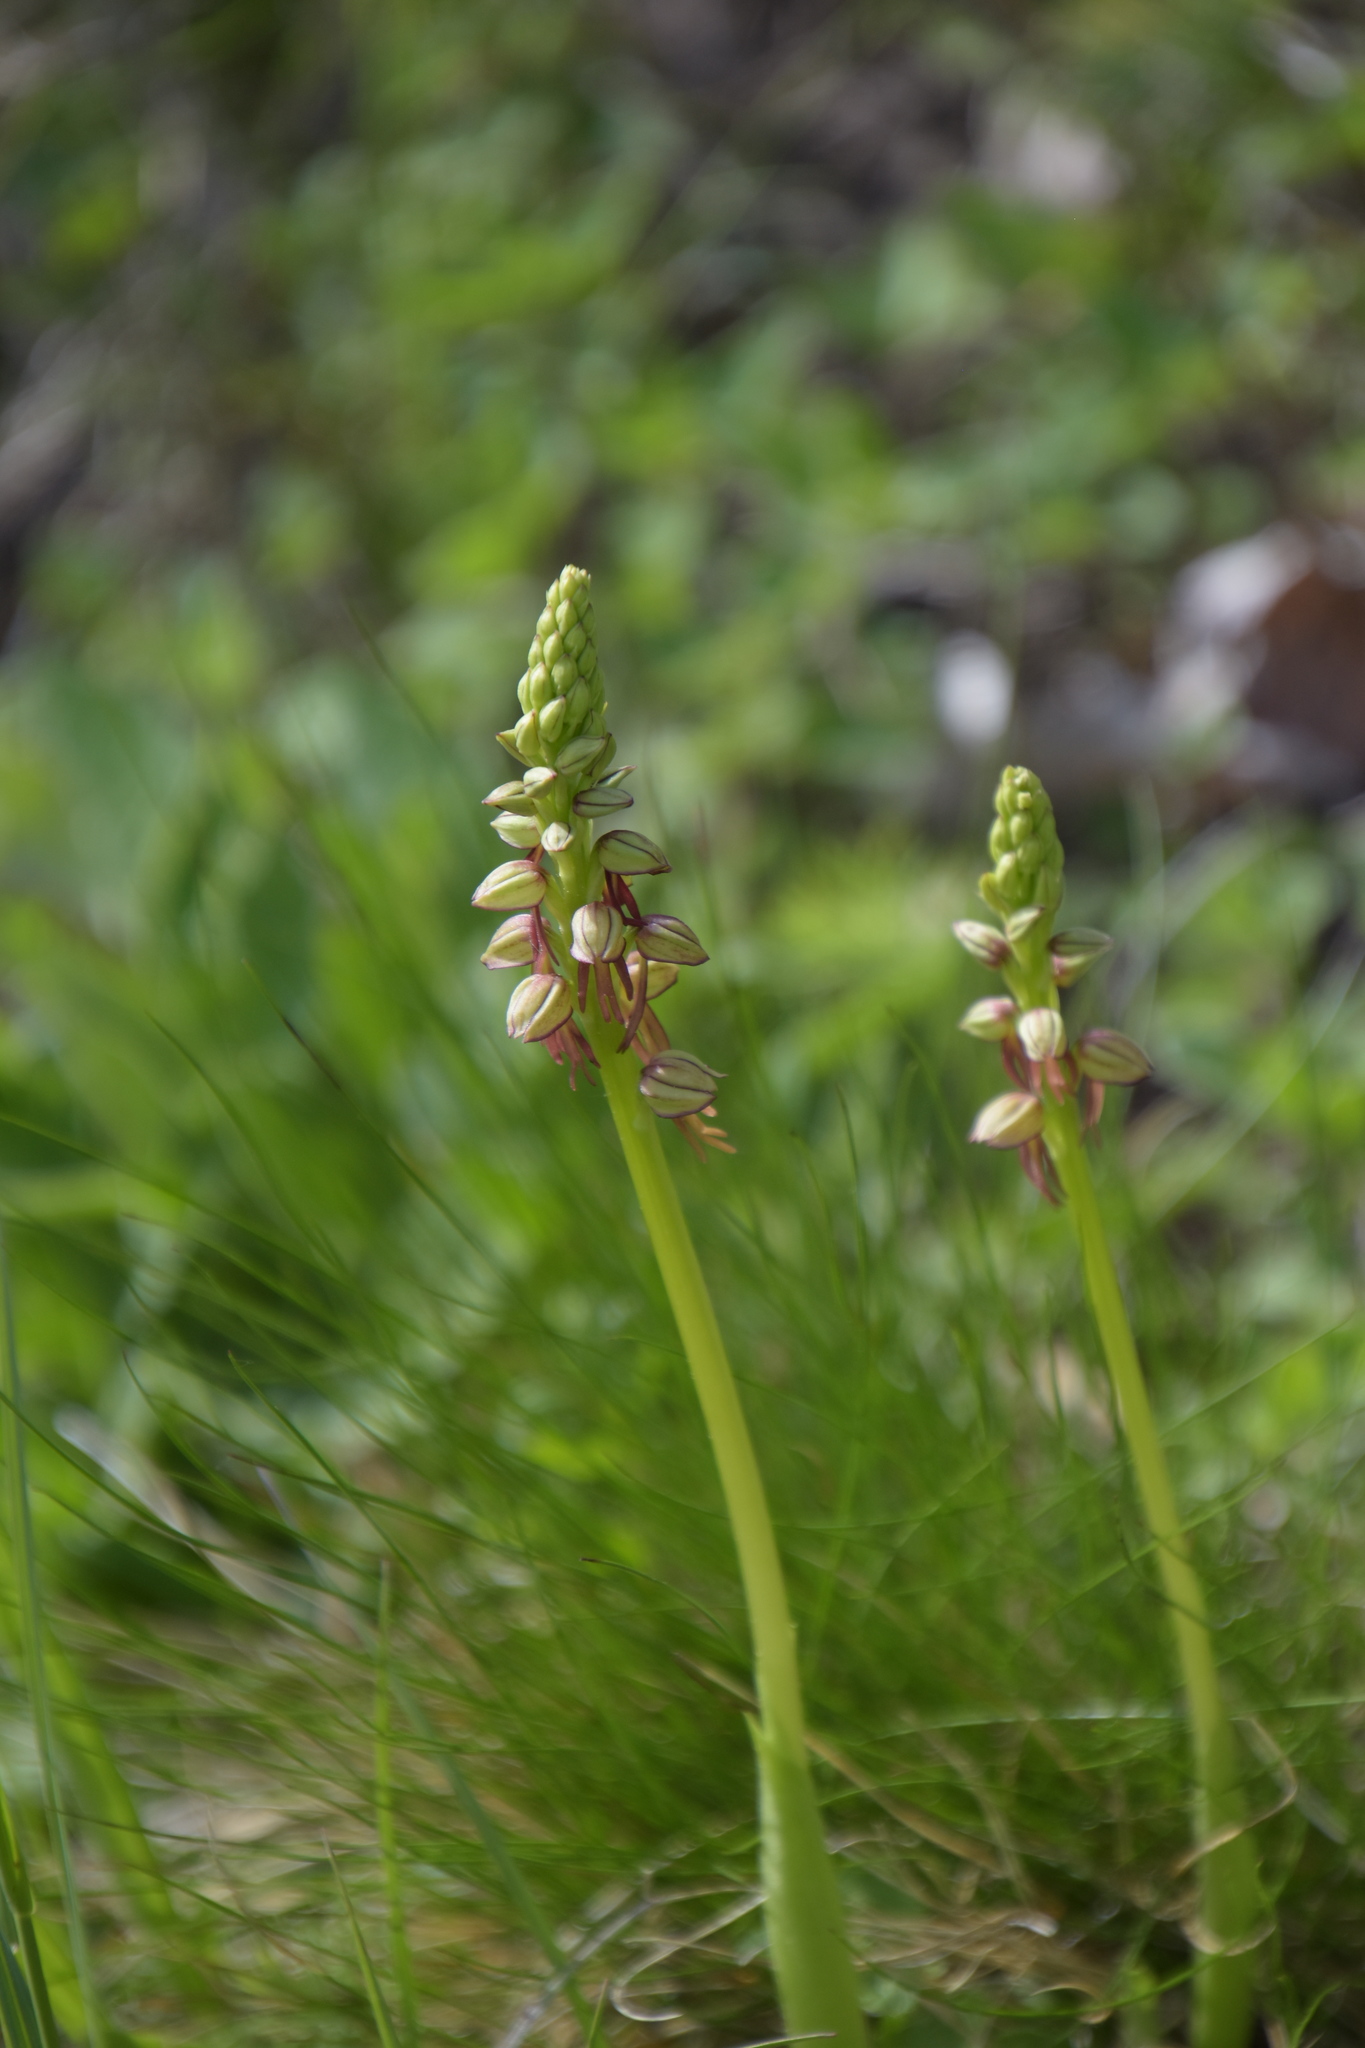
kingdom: Plantae
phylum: Tracheophyta
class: Liliopsida
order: Asparagales
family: Orchidaceae
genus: Orchis
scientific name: Orchis anthropophora
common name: Man orchid
